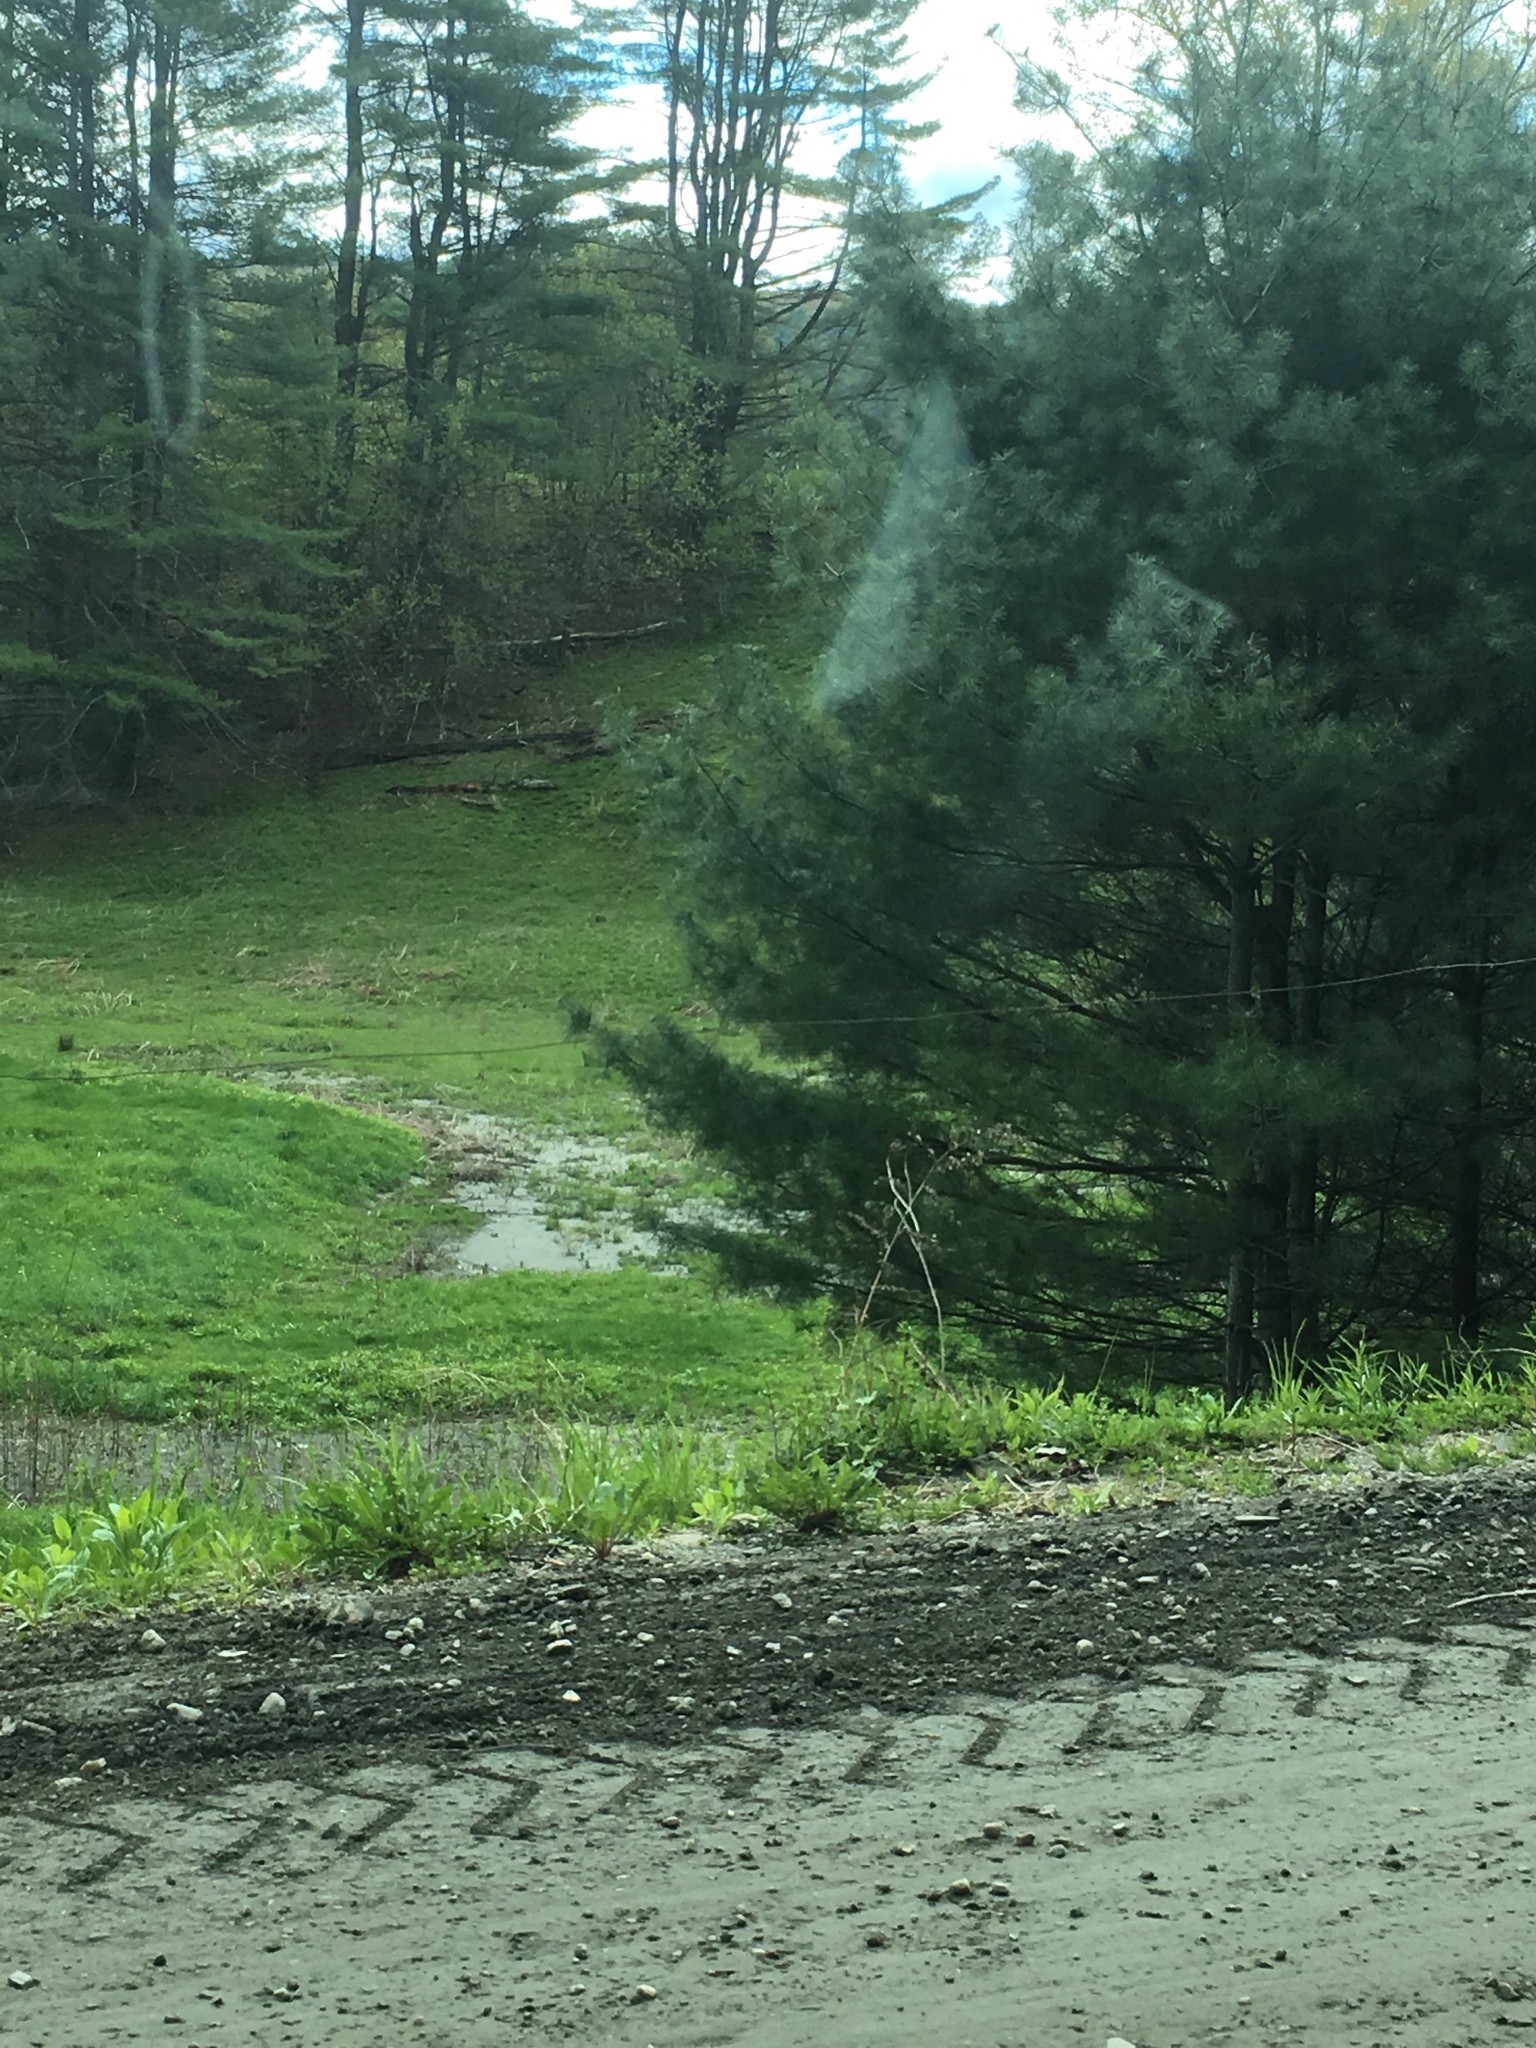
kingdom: Plantae
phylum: Tracheophyta
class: Pinopsida
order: Pinales
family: Pinaceae
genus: Pinus
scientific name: Pinus strobus
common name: Weymouth pine
